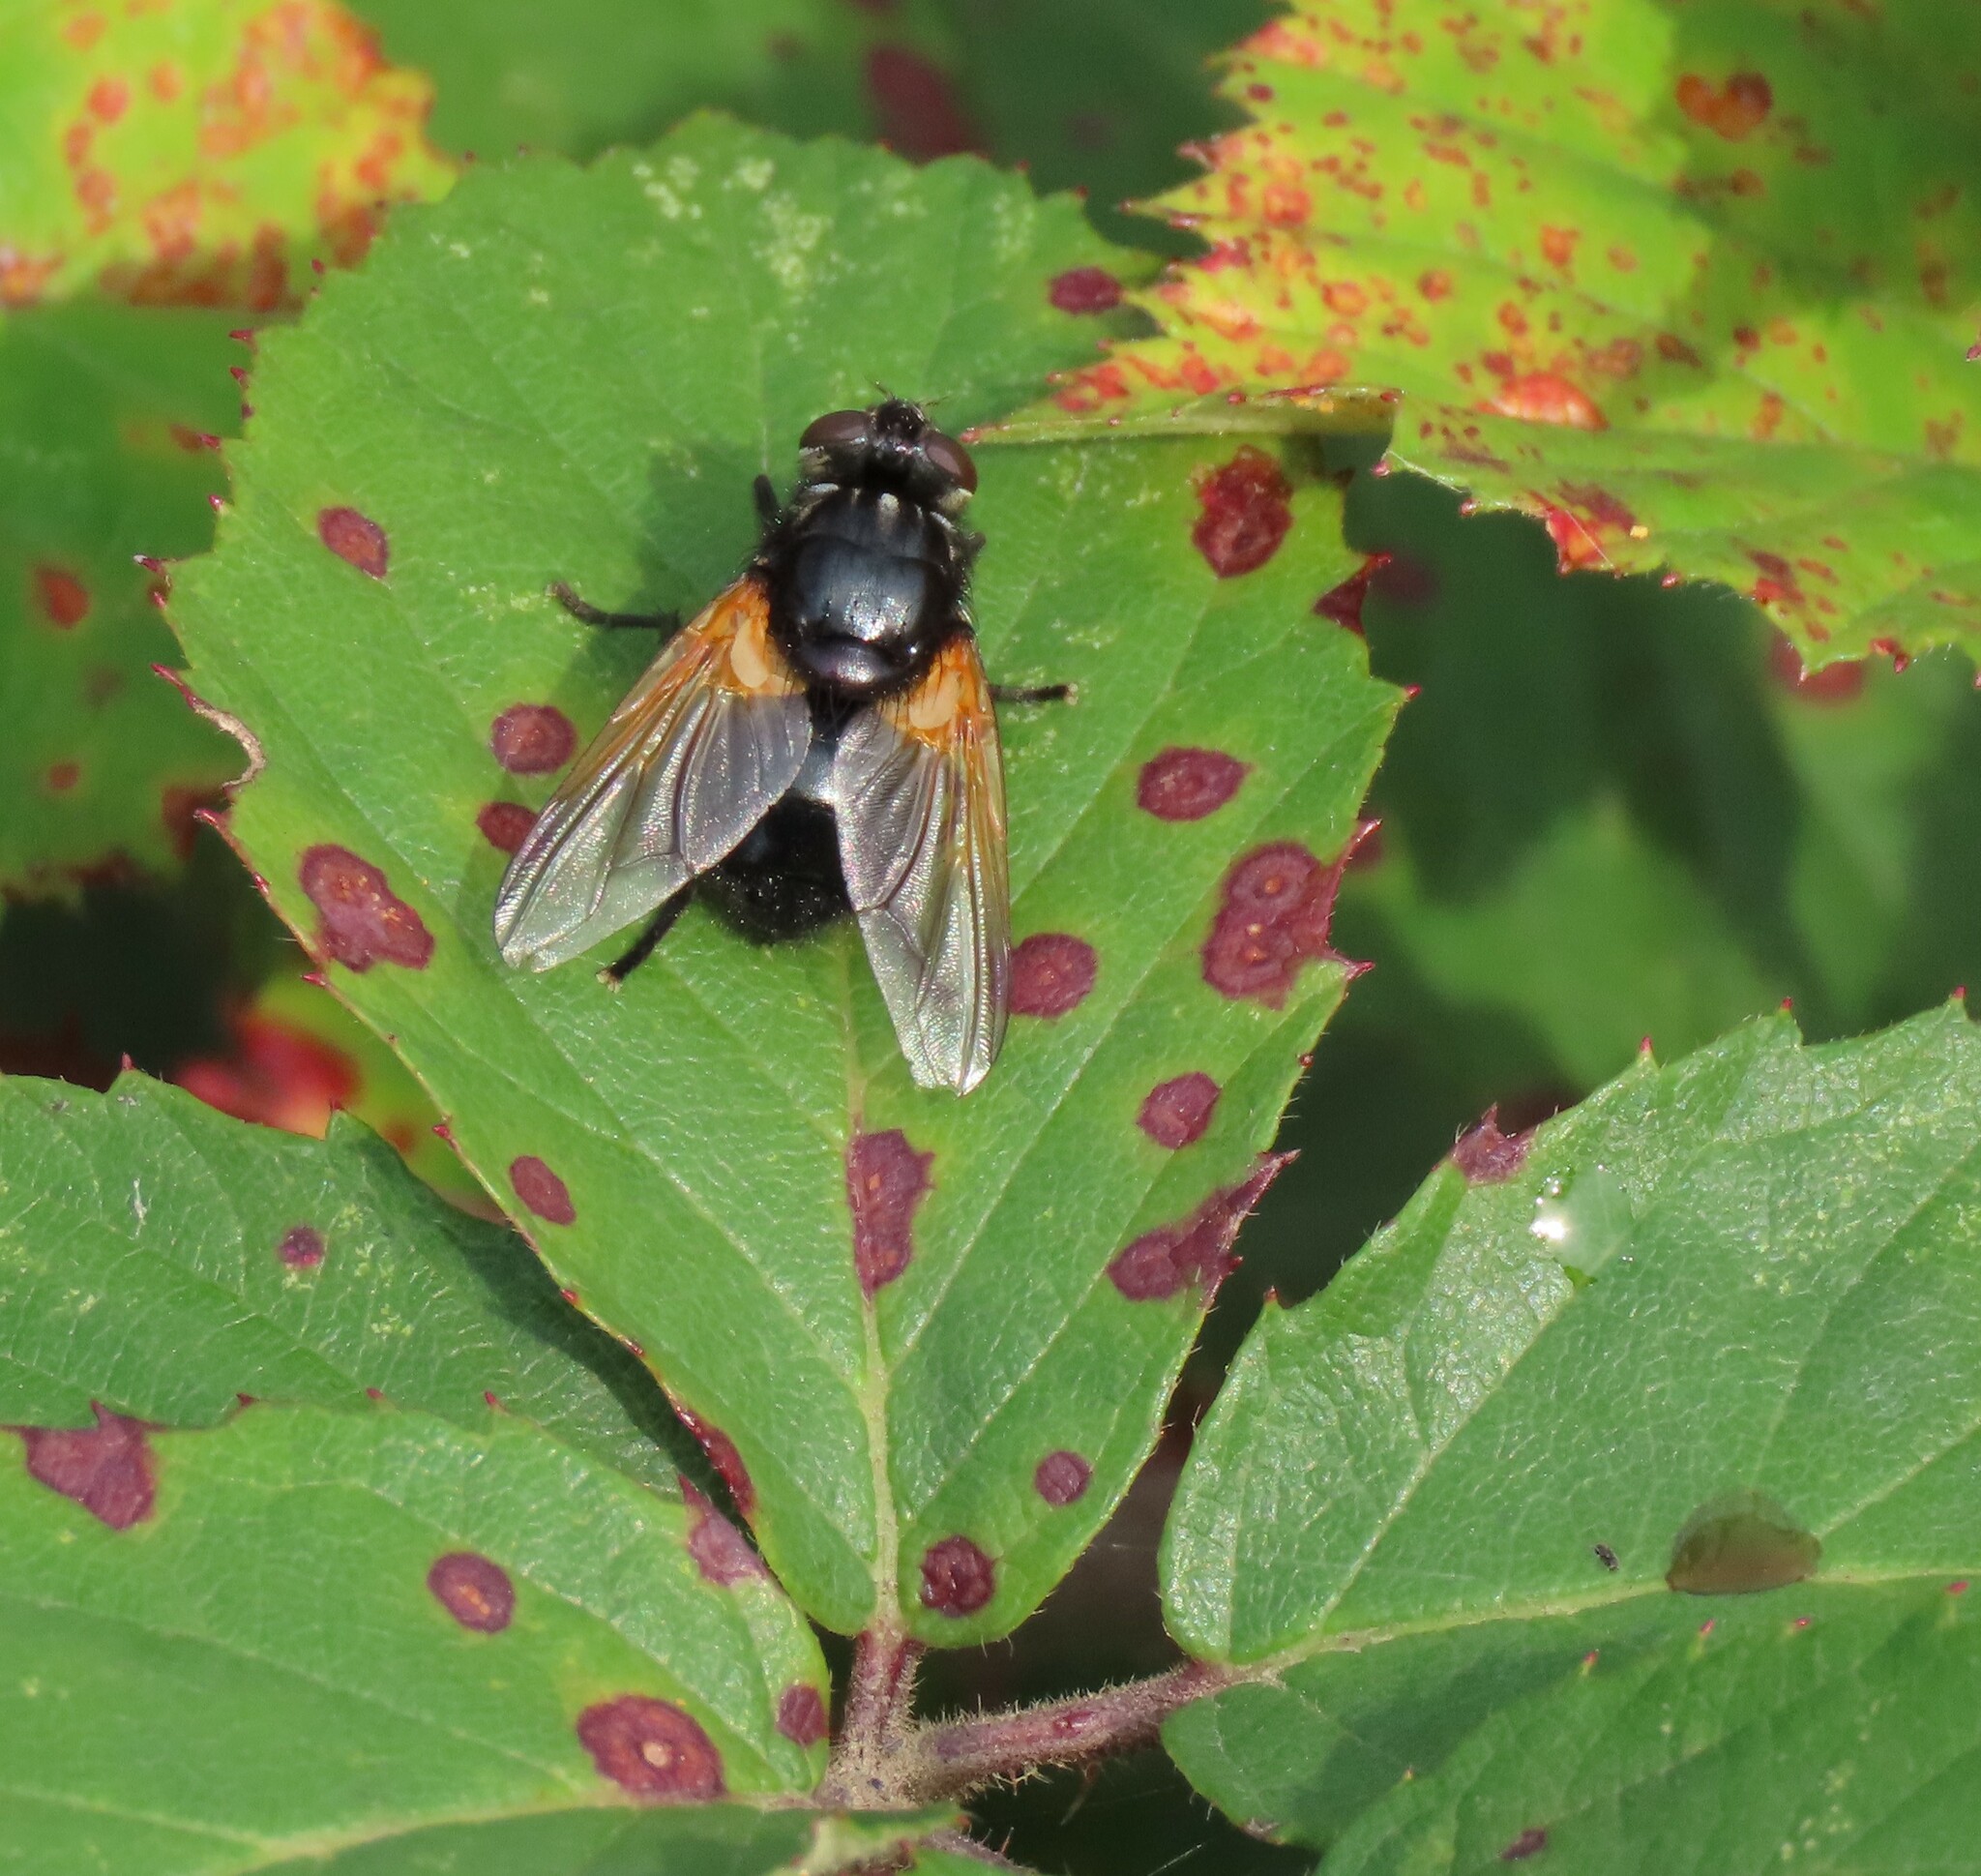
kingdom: Animalia
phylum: Arthropoda
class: Insecta
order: Diptera
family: Muscidae
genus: Mesembrina
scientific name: Mesembrina meridiana
